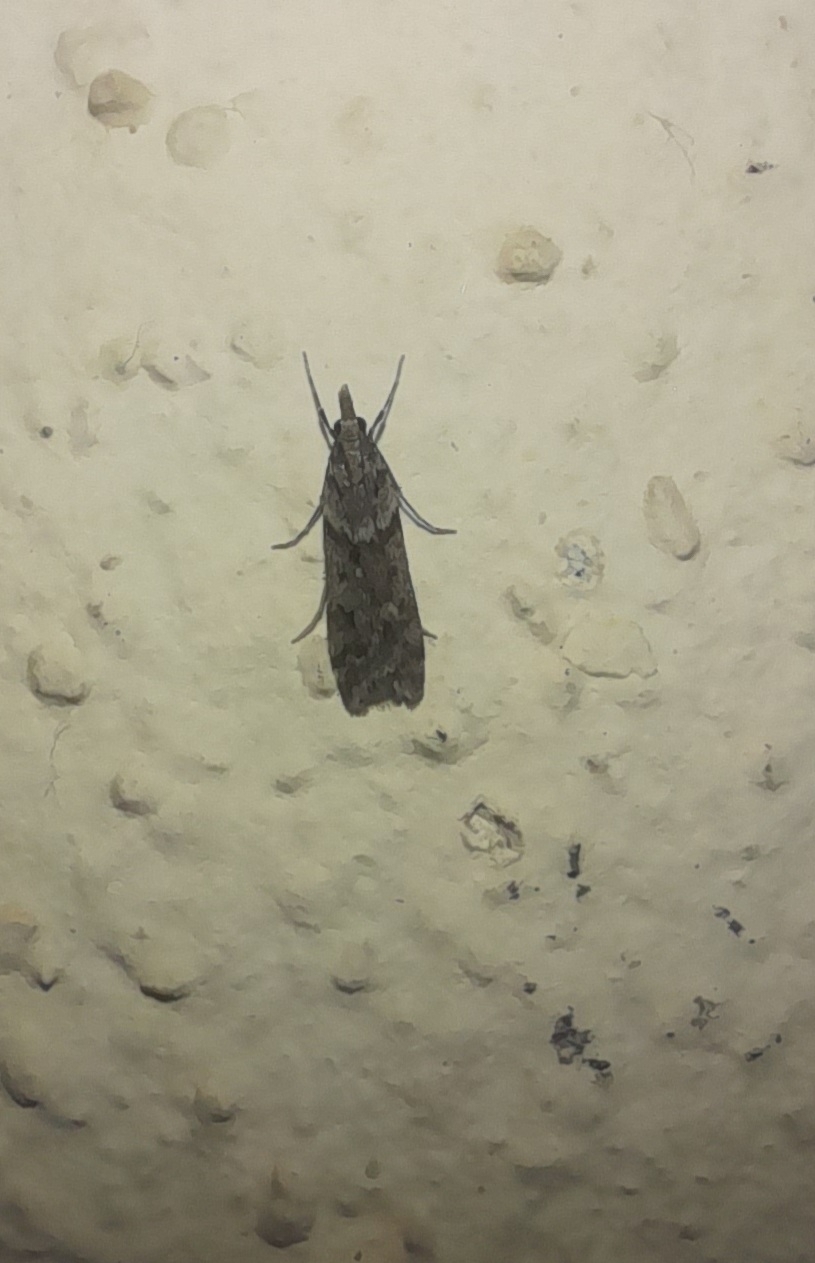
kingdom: Animalia
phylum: Arthropoda
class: Insecta
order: Lepidoptera
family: Crambidae
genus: Eudonia
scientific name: Eudonia angustea
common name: Narrow-winged grey
